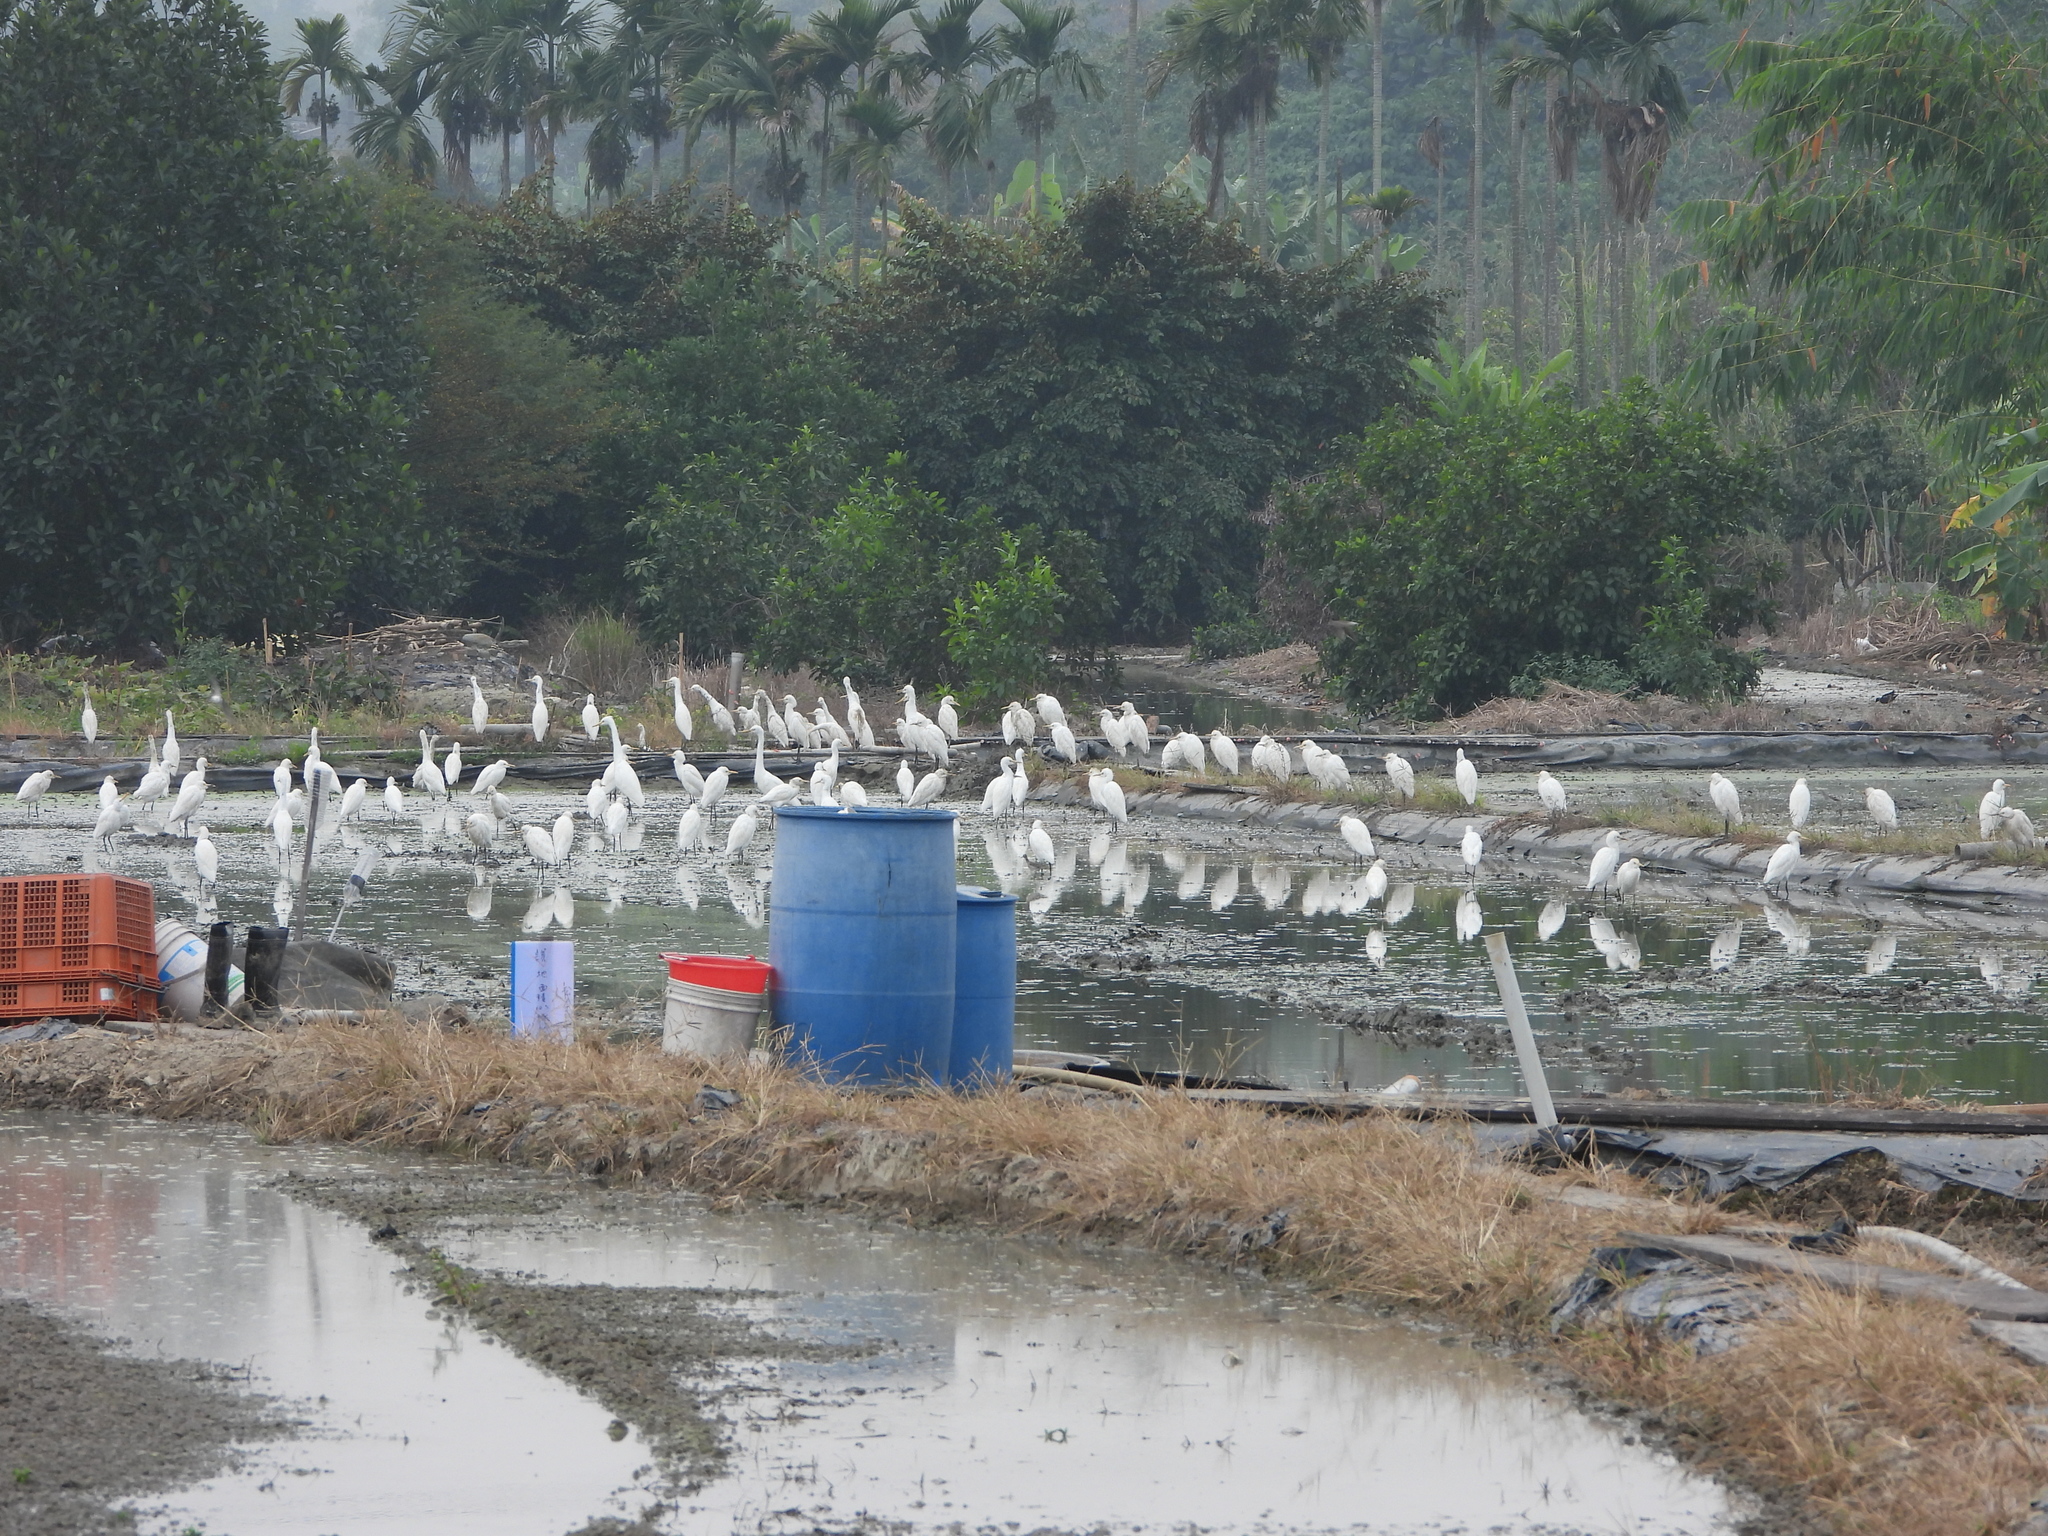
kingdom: Animalia
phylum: Chordata
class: Aves
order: Pelecaniformes
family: Ardeidae
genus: Bubulcus
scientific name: Bubulcus coromandus
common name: Eastern cattle egret
